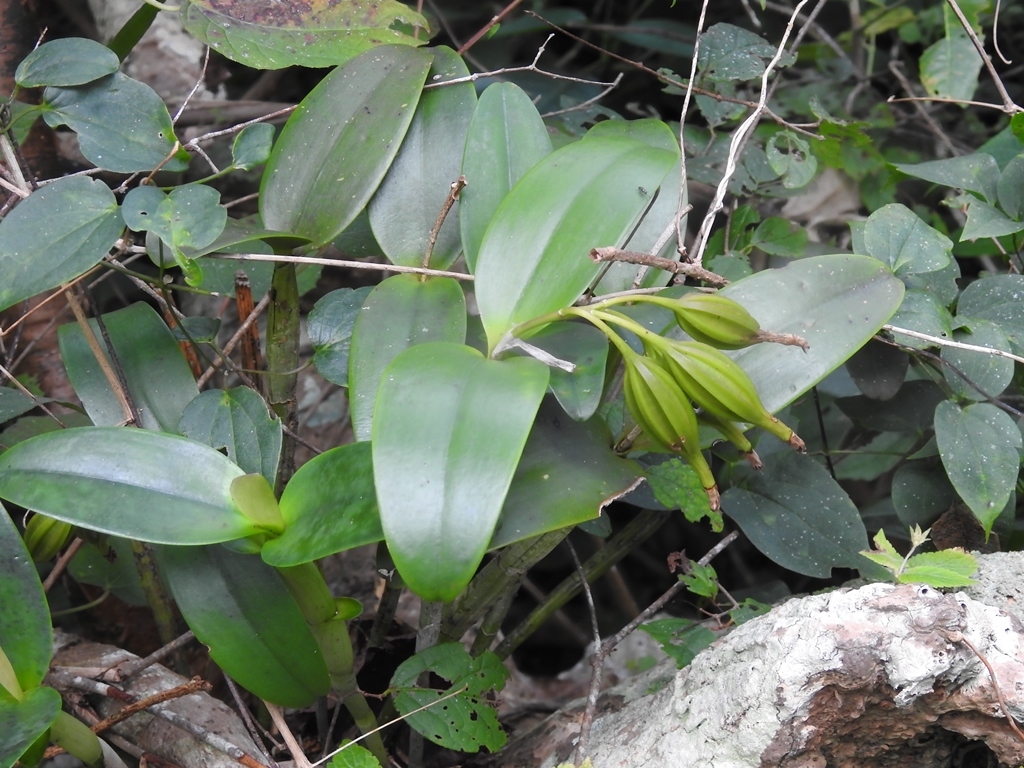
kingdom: Plantae
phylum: Tracheophyta
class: Liliopsida
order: Asparagales
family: Orchidaceae
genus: Guarianthe
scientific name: Guarianthe aurantiaca
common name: Orange cattleya
